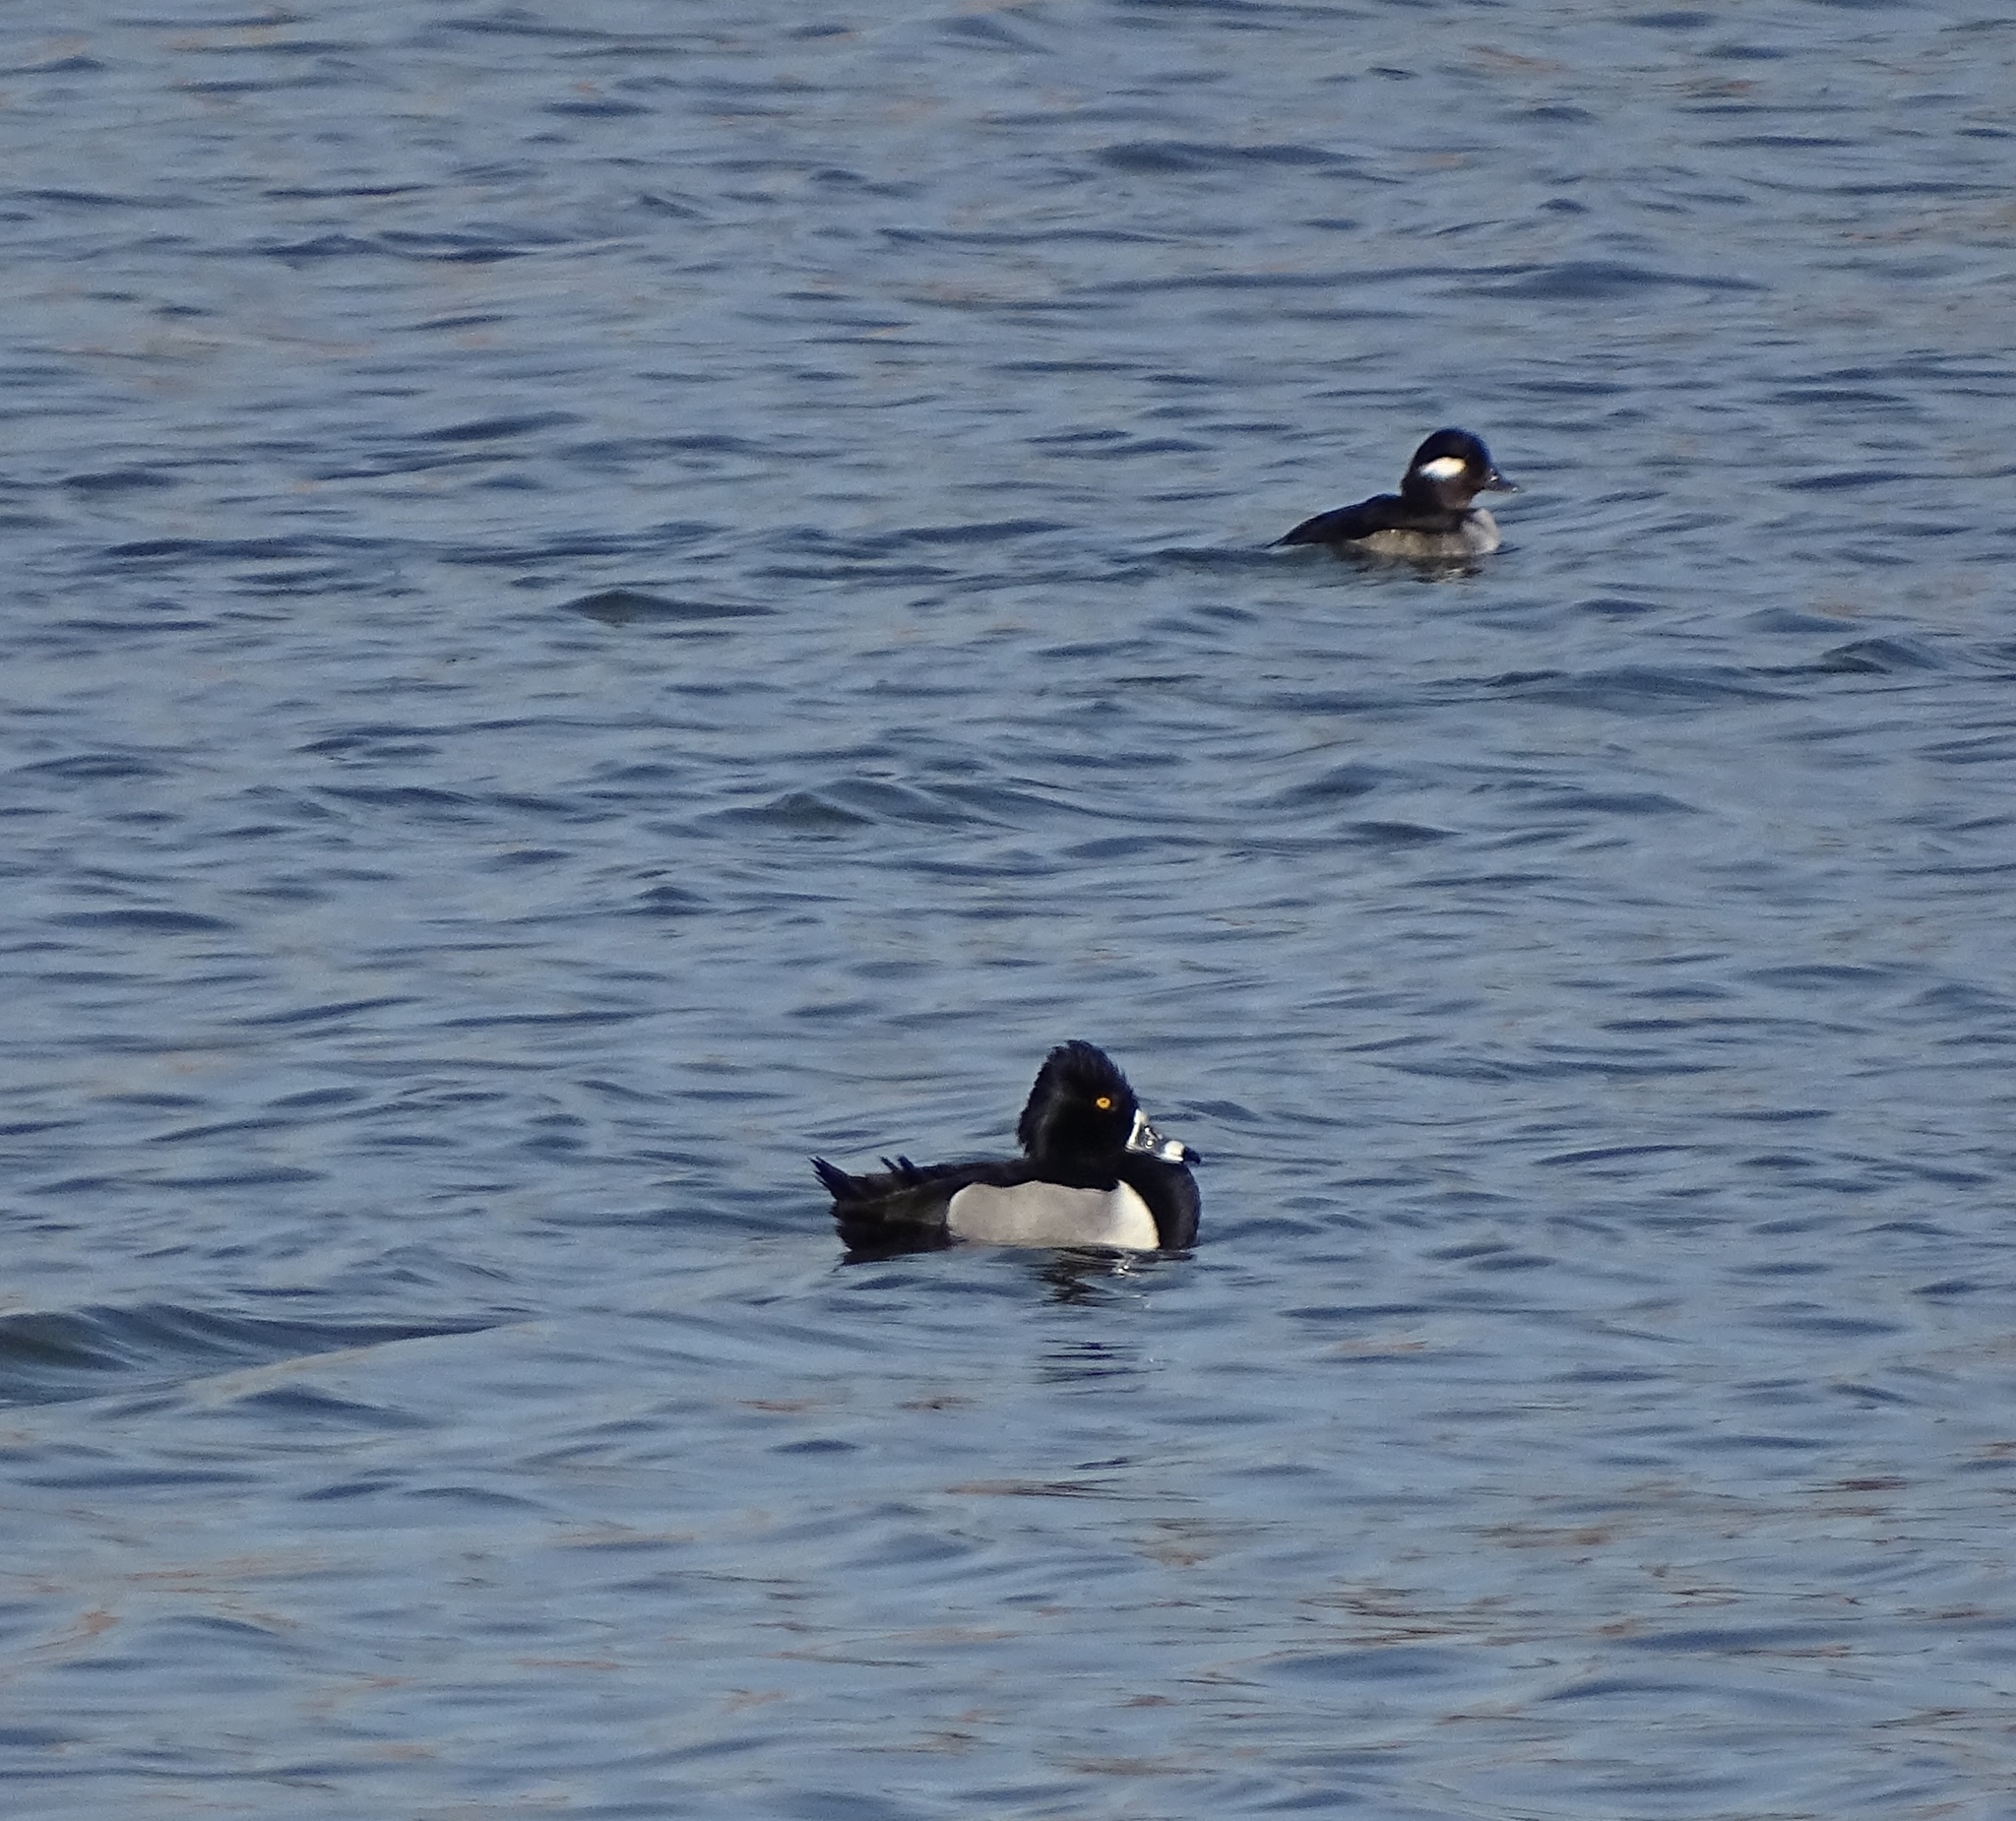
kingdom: Animalia
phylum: Chordata
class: Aves
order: Anseriformes
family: Anatidae
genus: Aythya
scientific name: Aythya collaris
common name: Ring-necked duck
